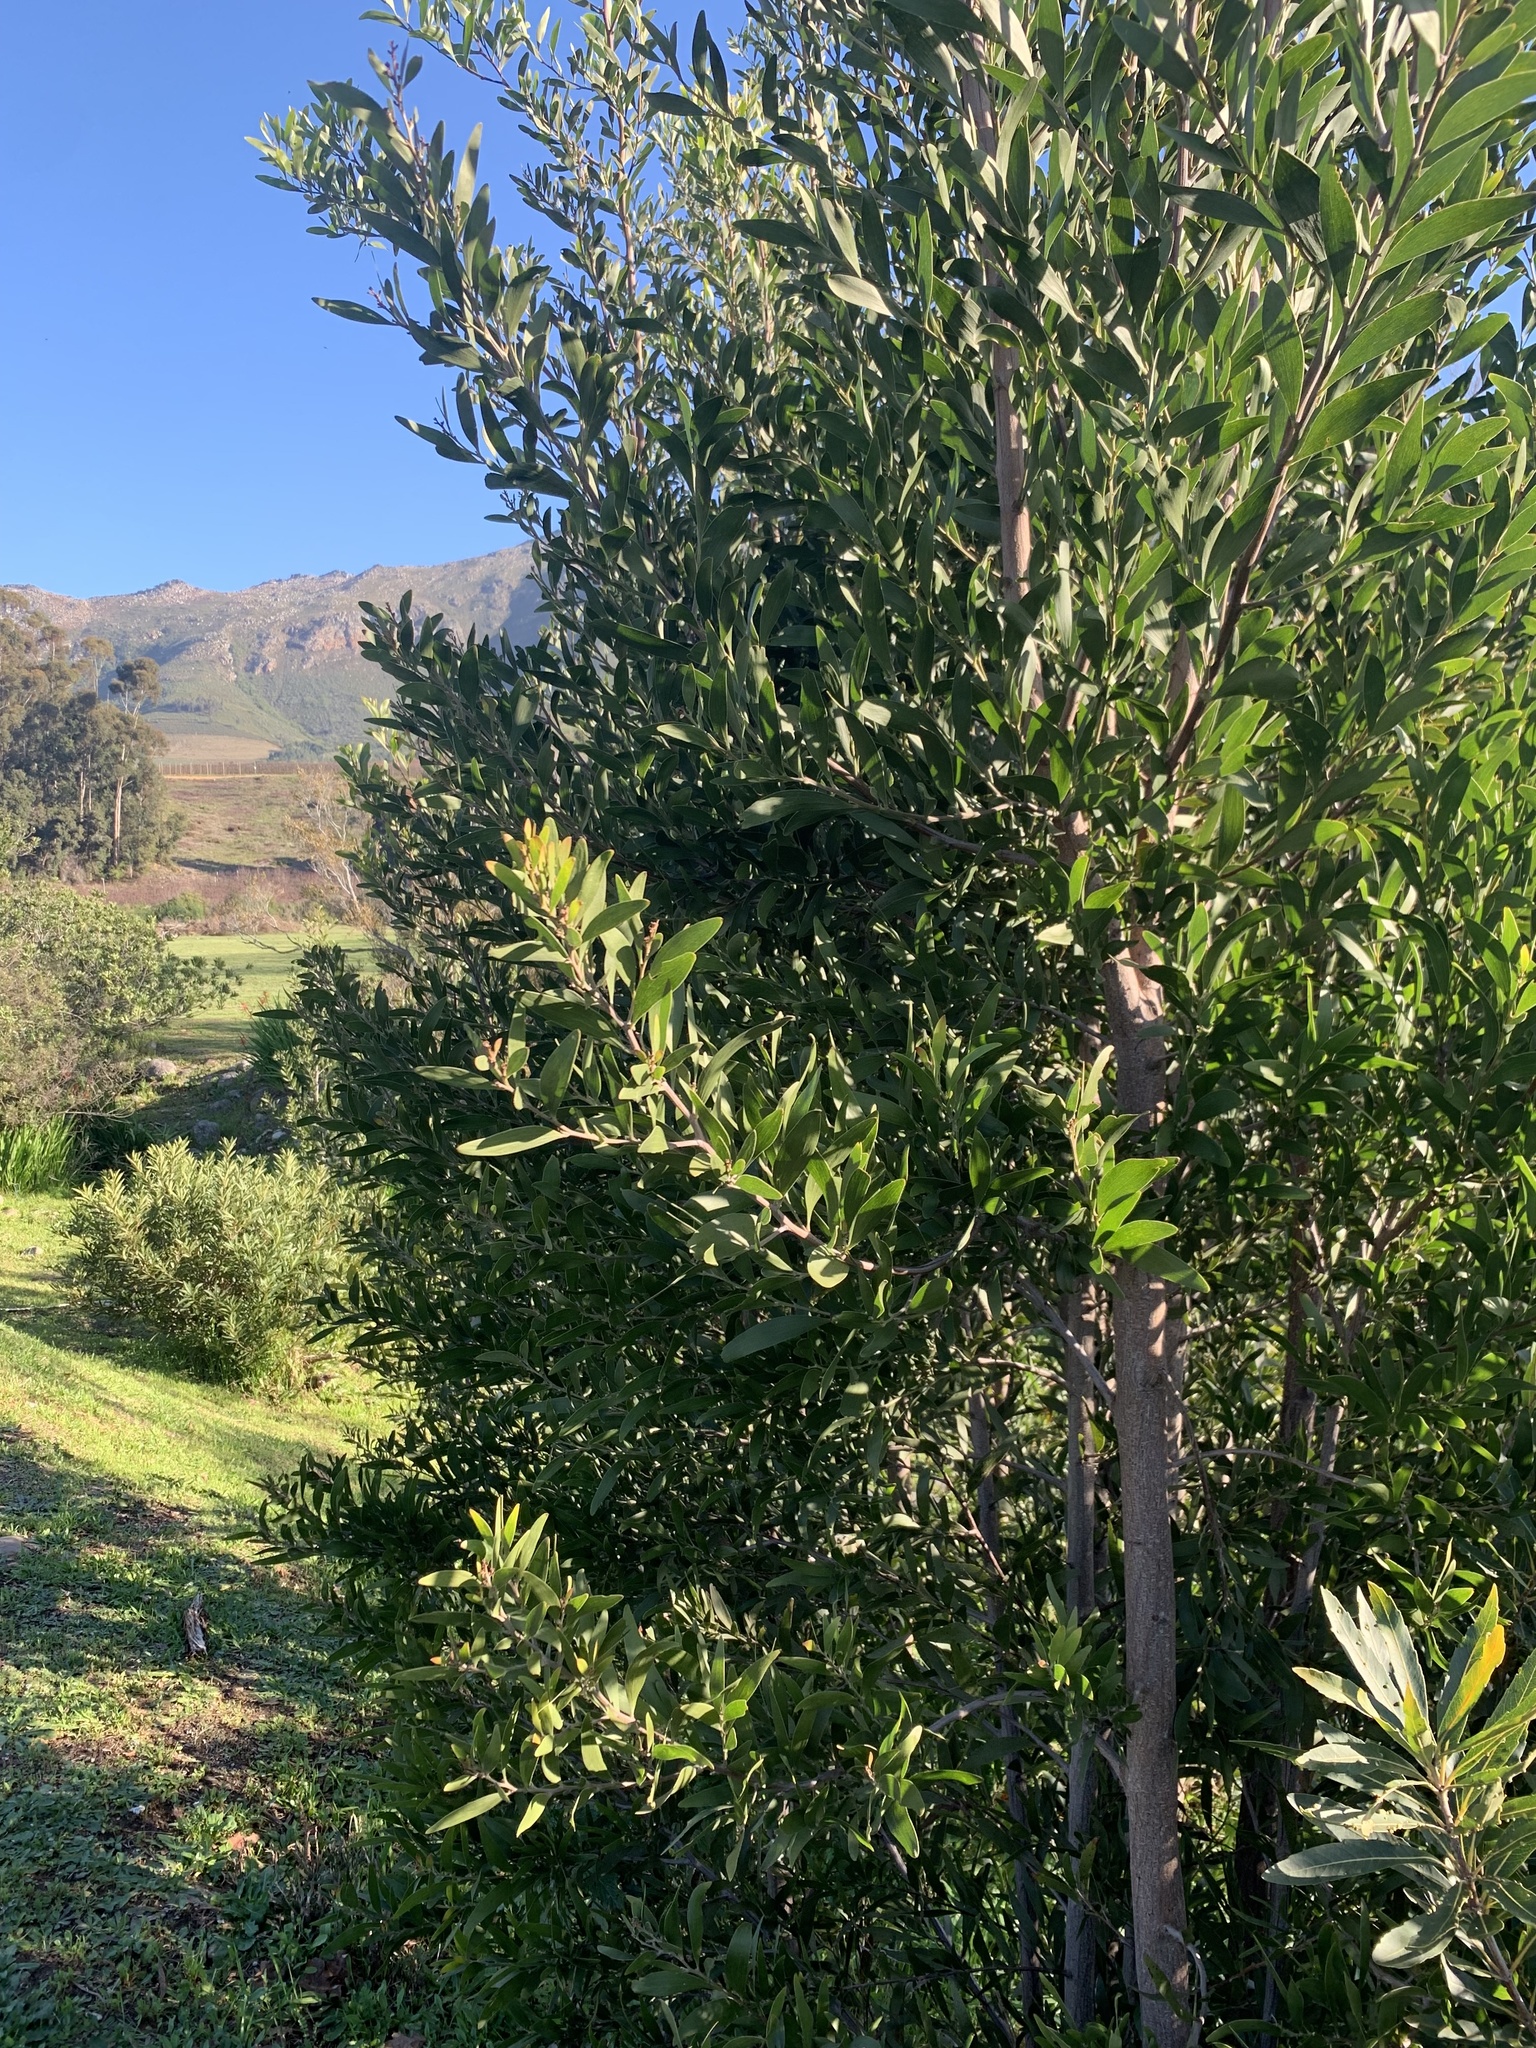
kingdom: Plantae
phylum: Tracheophyta
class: Magnoliopsida
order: Fabales
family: Fabaceae
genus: Acacia
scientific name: Acacia melanoxylon
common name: Blackwood
